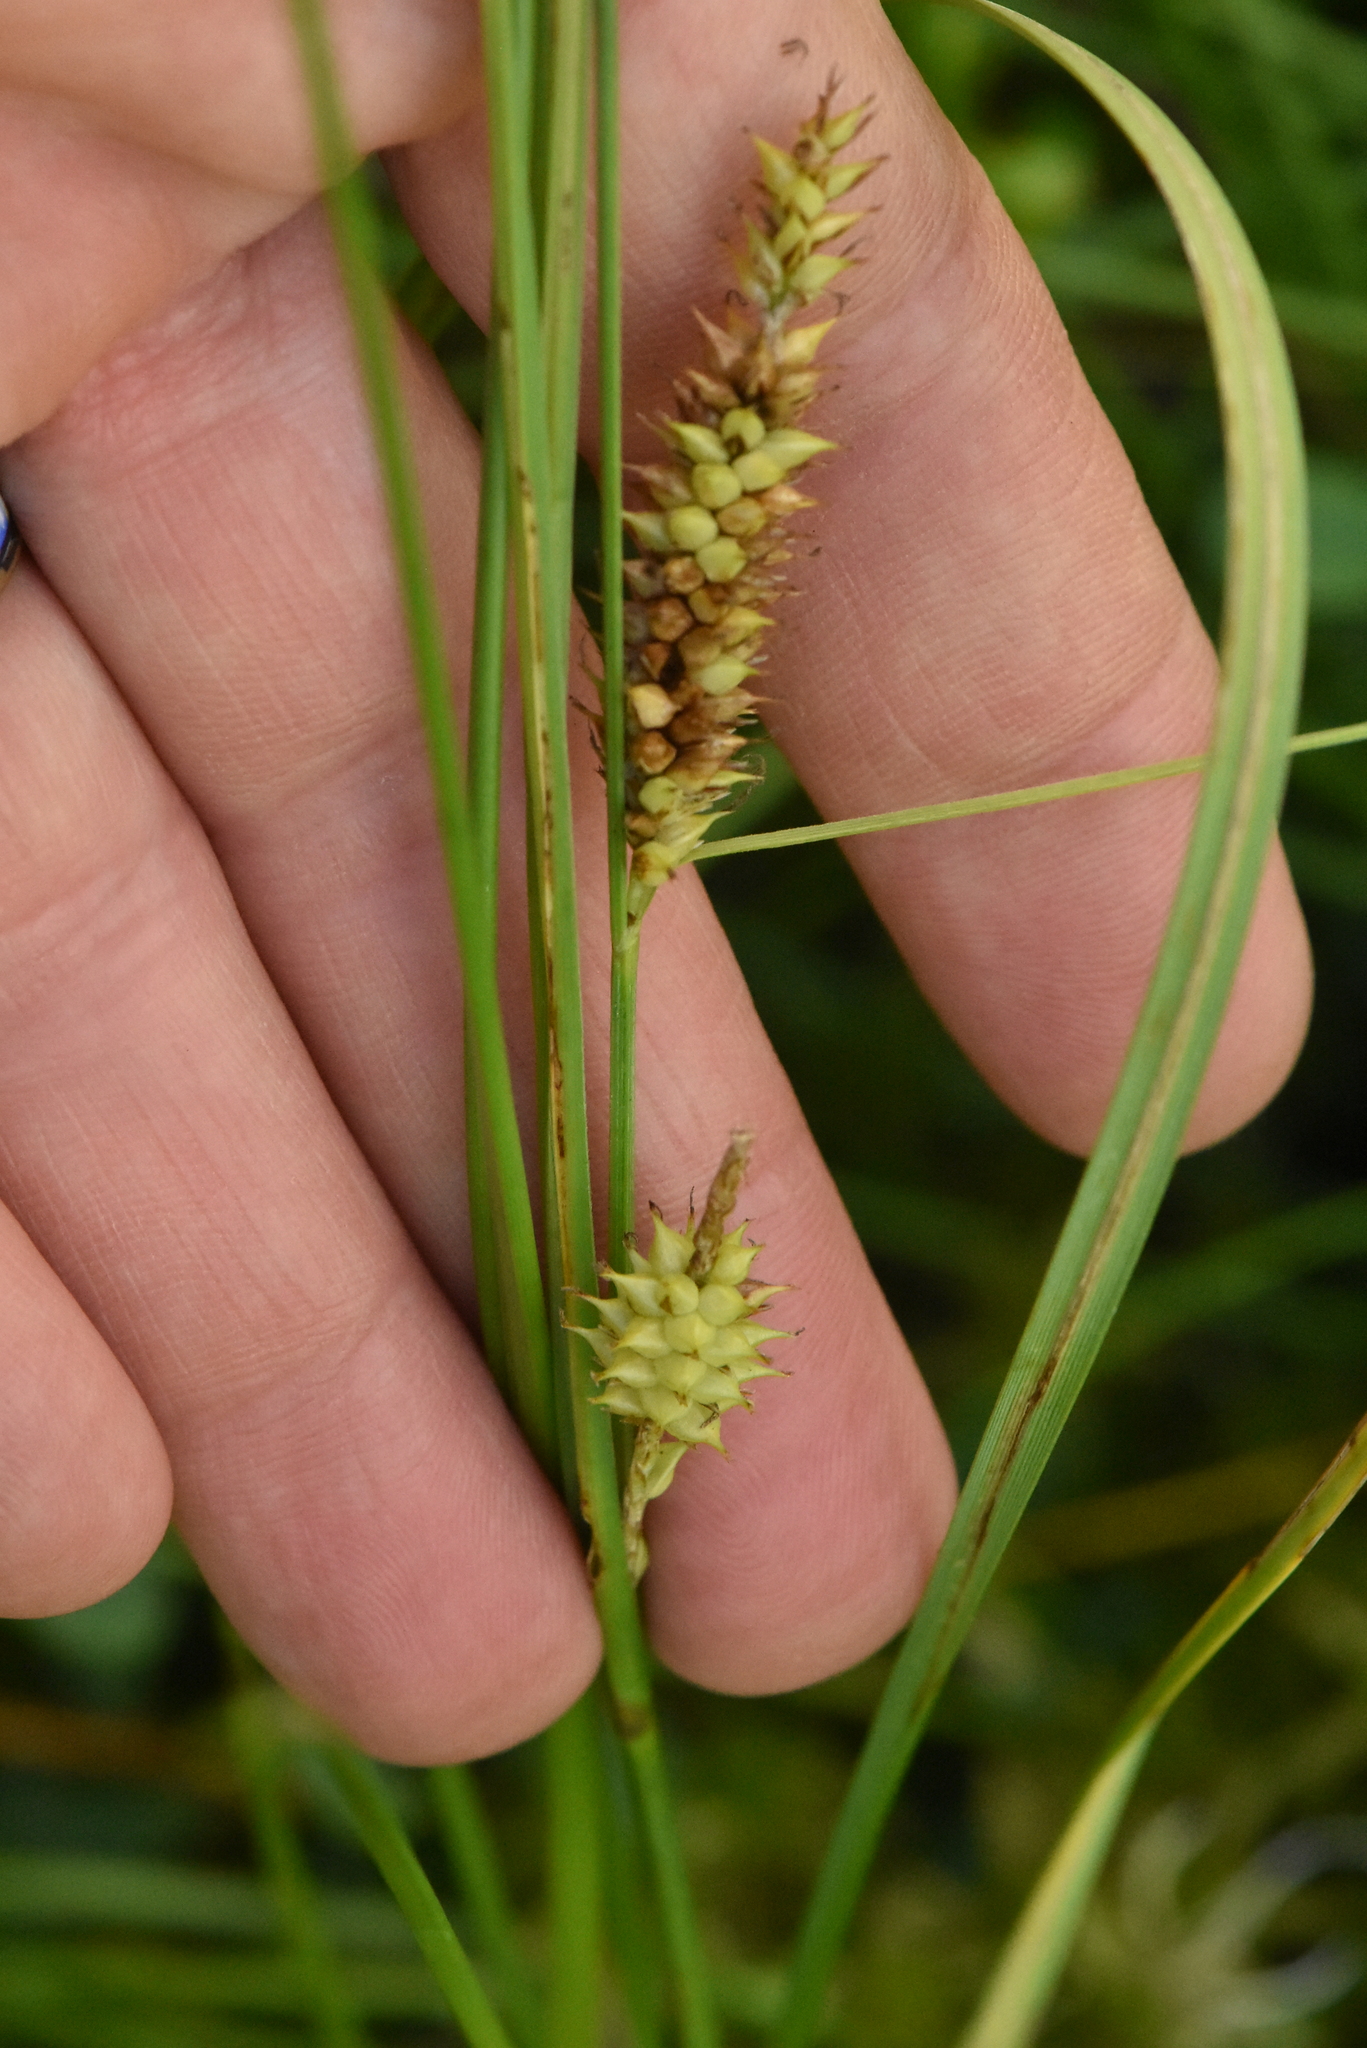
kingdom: Plantae
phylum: Tracheophyta
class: Liliopsida
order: Poales
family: Cyperaceae
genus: Carex
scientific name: Carex rostrata
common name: Bottle sedge
